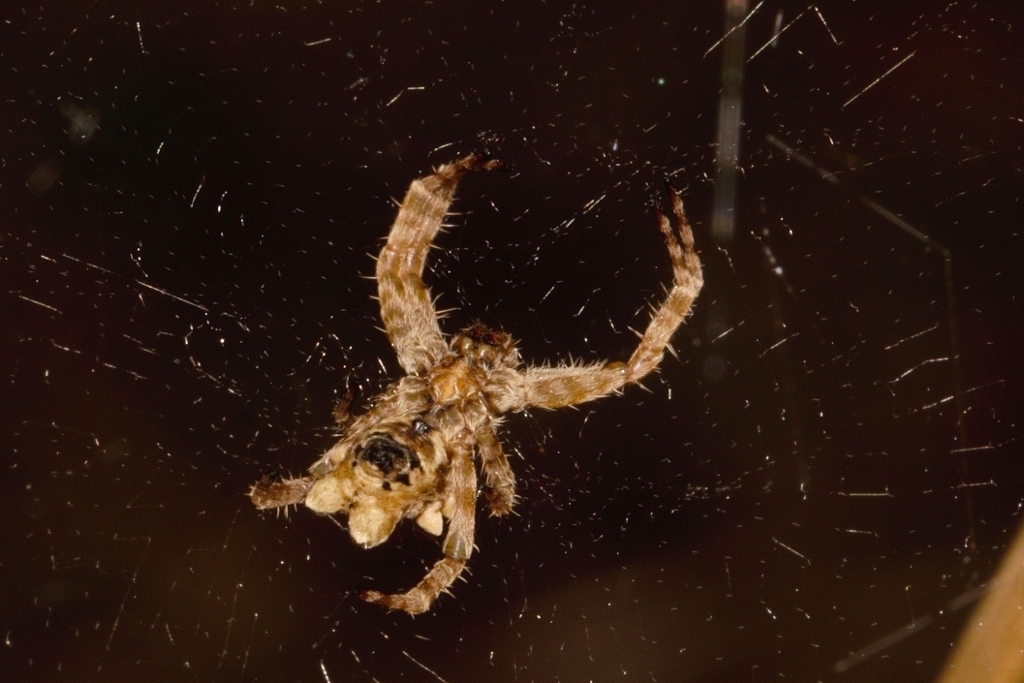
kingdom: Animalia
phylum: Arthropoda
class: Arachnida
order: Araneae
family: Araneidae
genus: Cyrtophora
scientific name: Cyrtophora citricola
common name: Orb weavers
